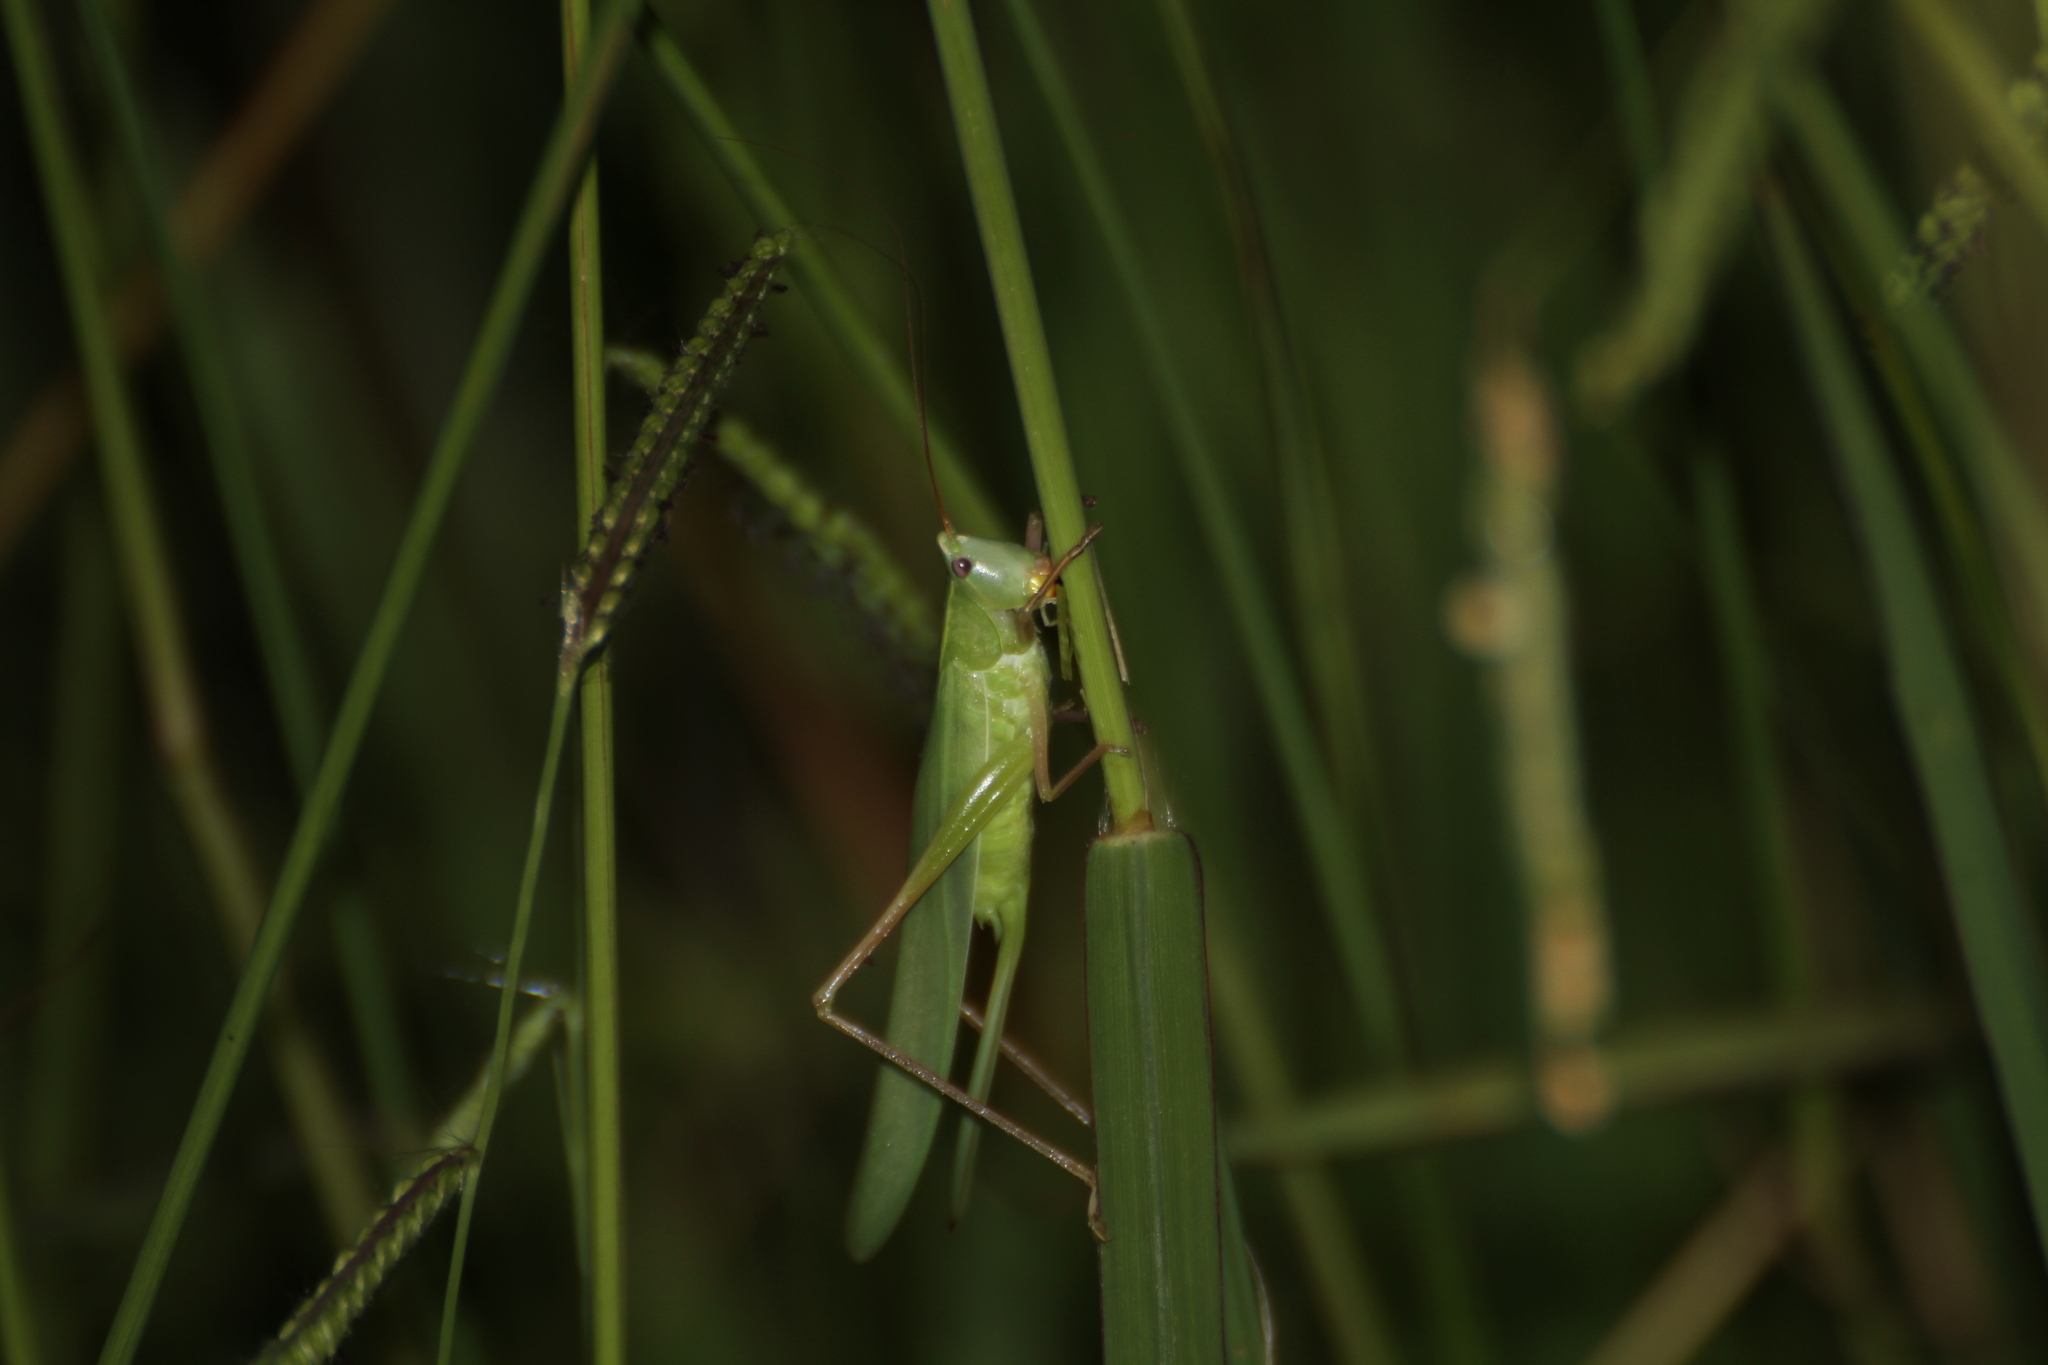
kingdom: Animalia
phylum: Arthropoda
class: Insecta
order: Orthoptera
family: Tettigoniidae
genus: Ruspolia
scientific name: Ruspolia nitidula
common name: Large conehead
